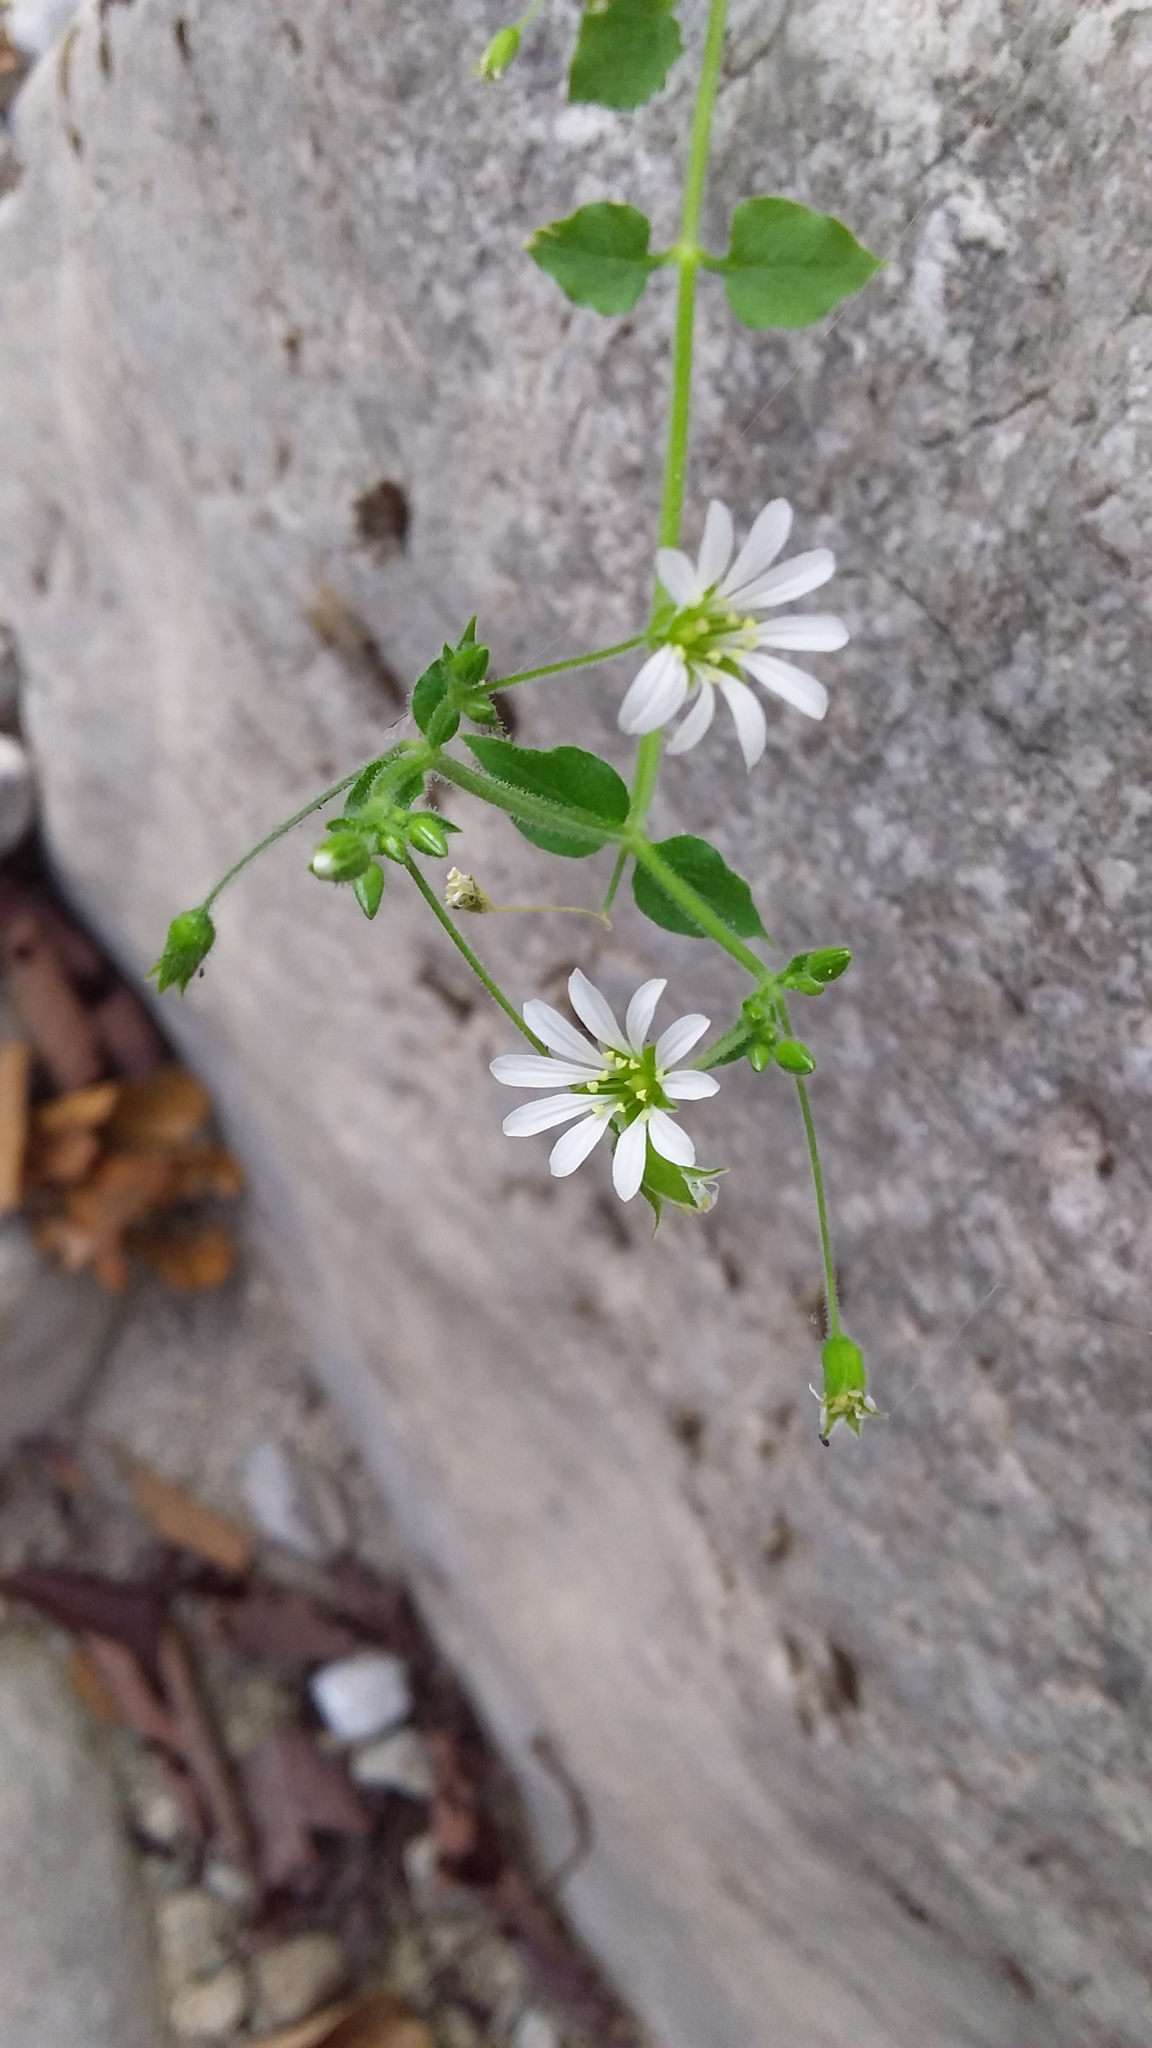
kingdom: Plantae
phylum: Tracheophyta
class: Magnoliopsida
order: Caryophyllales
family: Caryophyllaceae
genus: Stellaria
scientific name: Stellaria cuspidata
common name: Mexican chickweed
